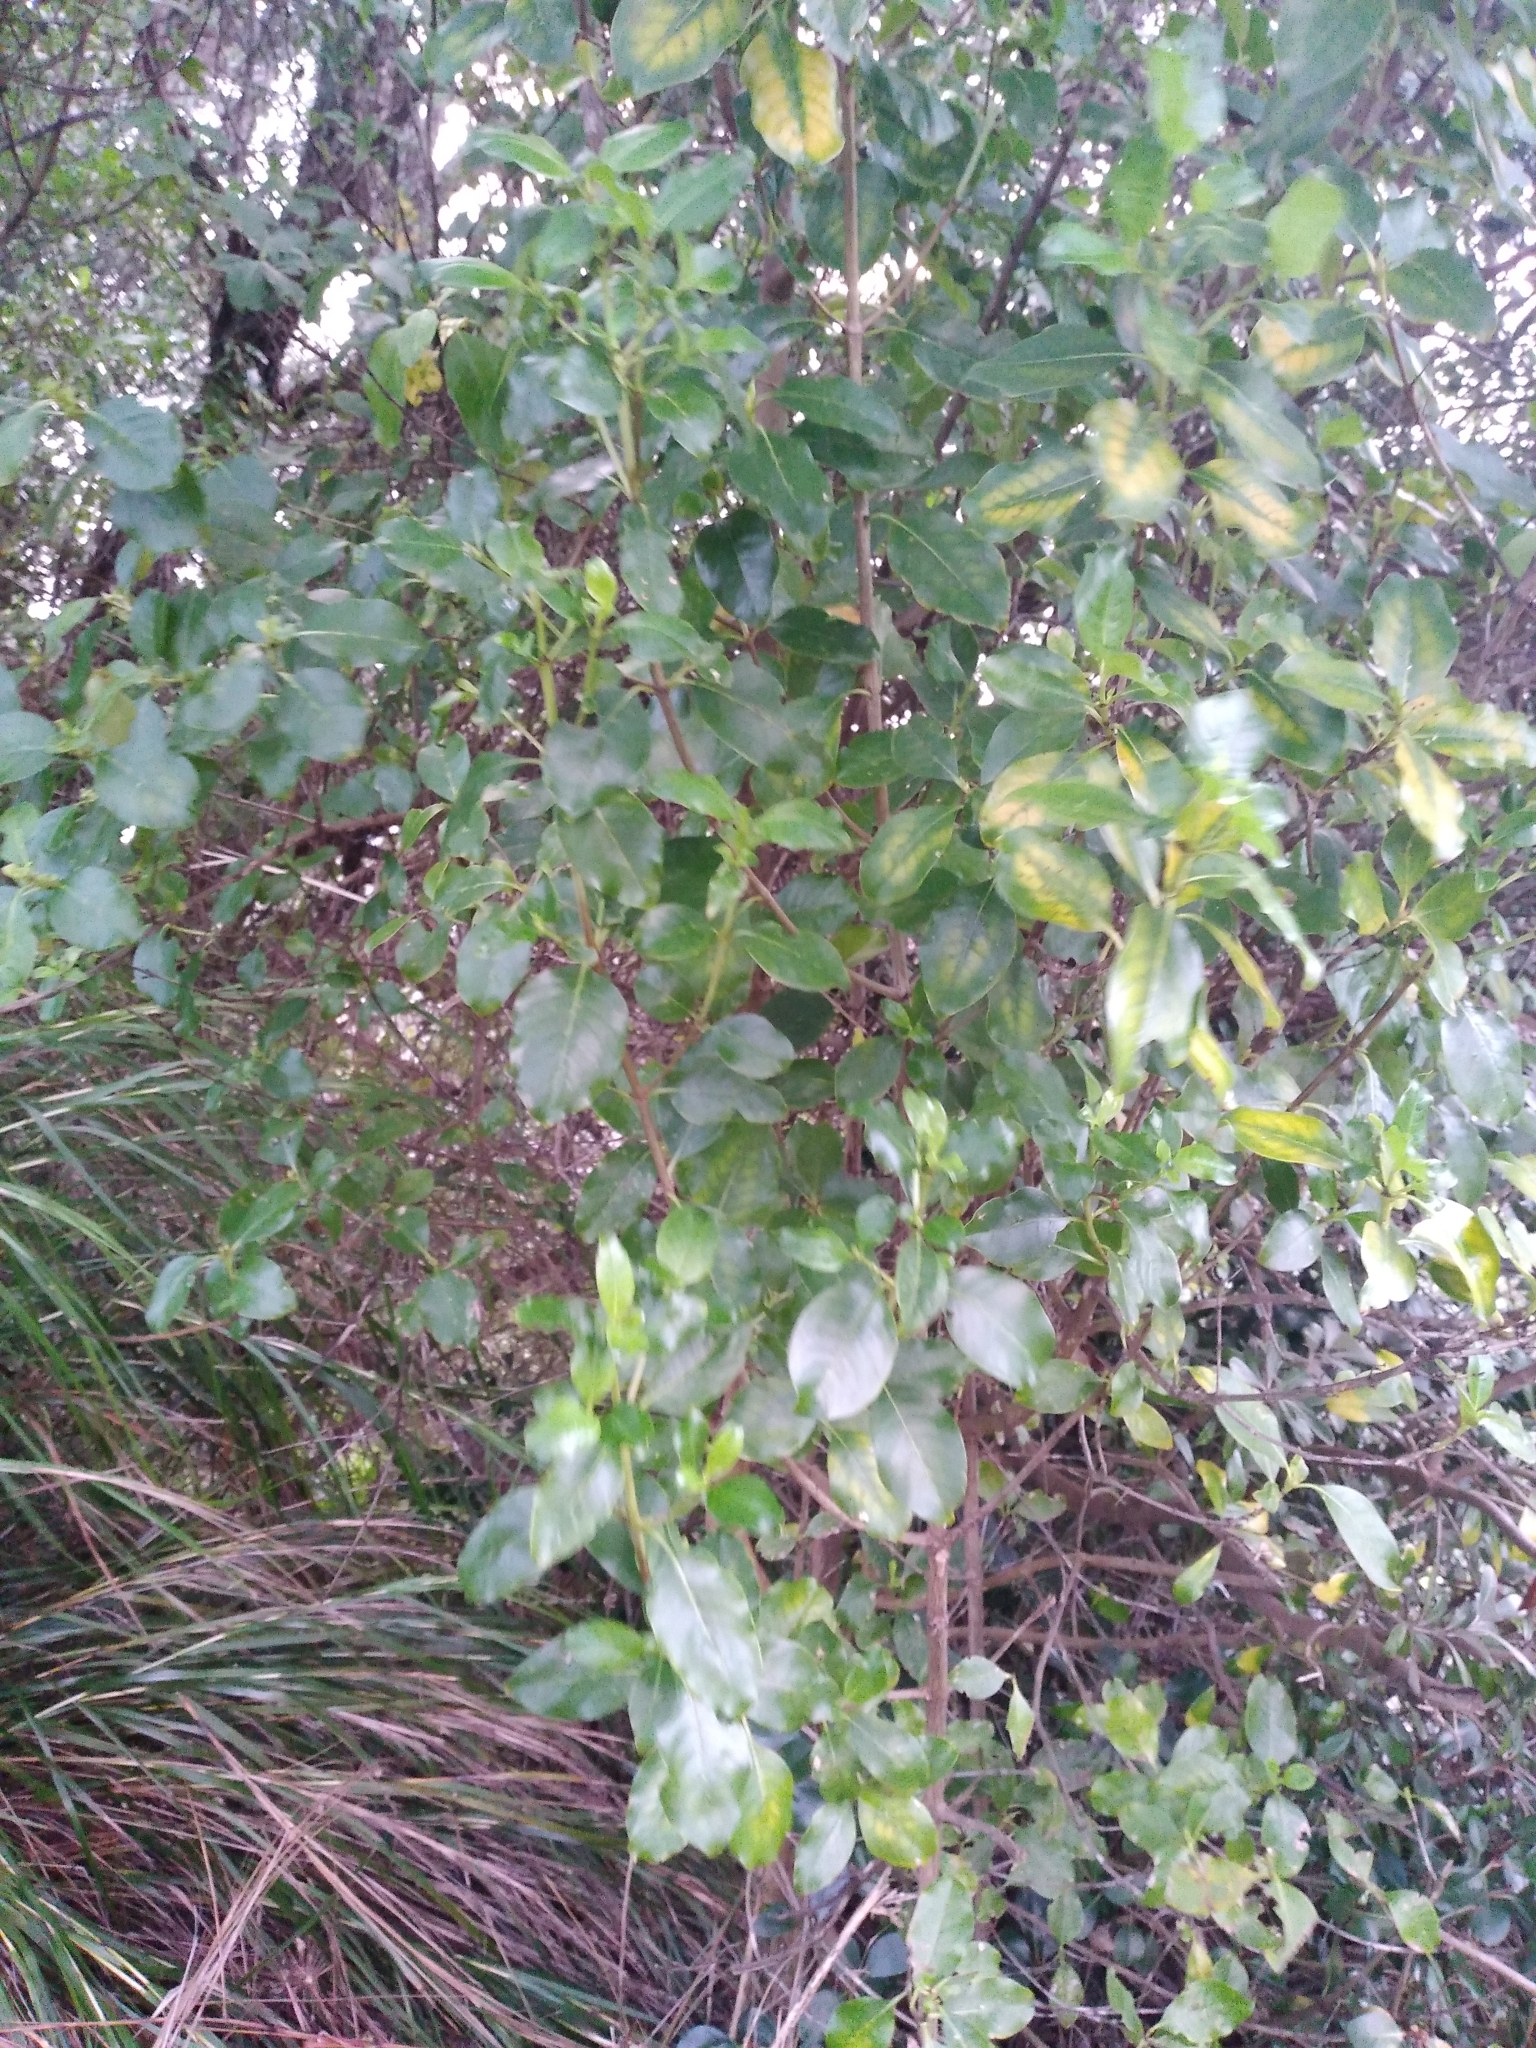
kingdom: Plantae
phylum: Tracheophyta
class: Magnoliopsida
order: Gentianales
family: Rubiaceae
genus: Coprosma
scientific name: Coprosma macrocarpa
